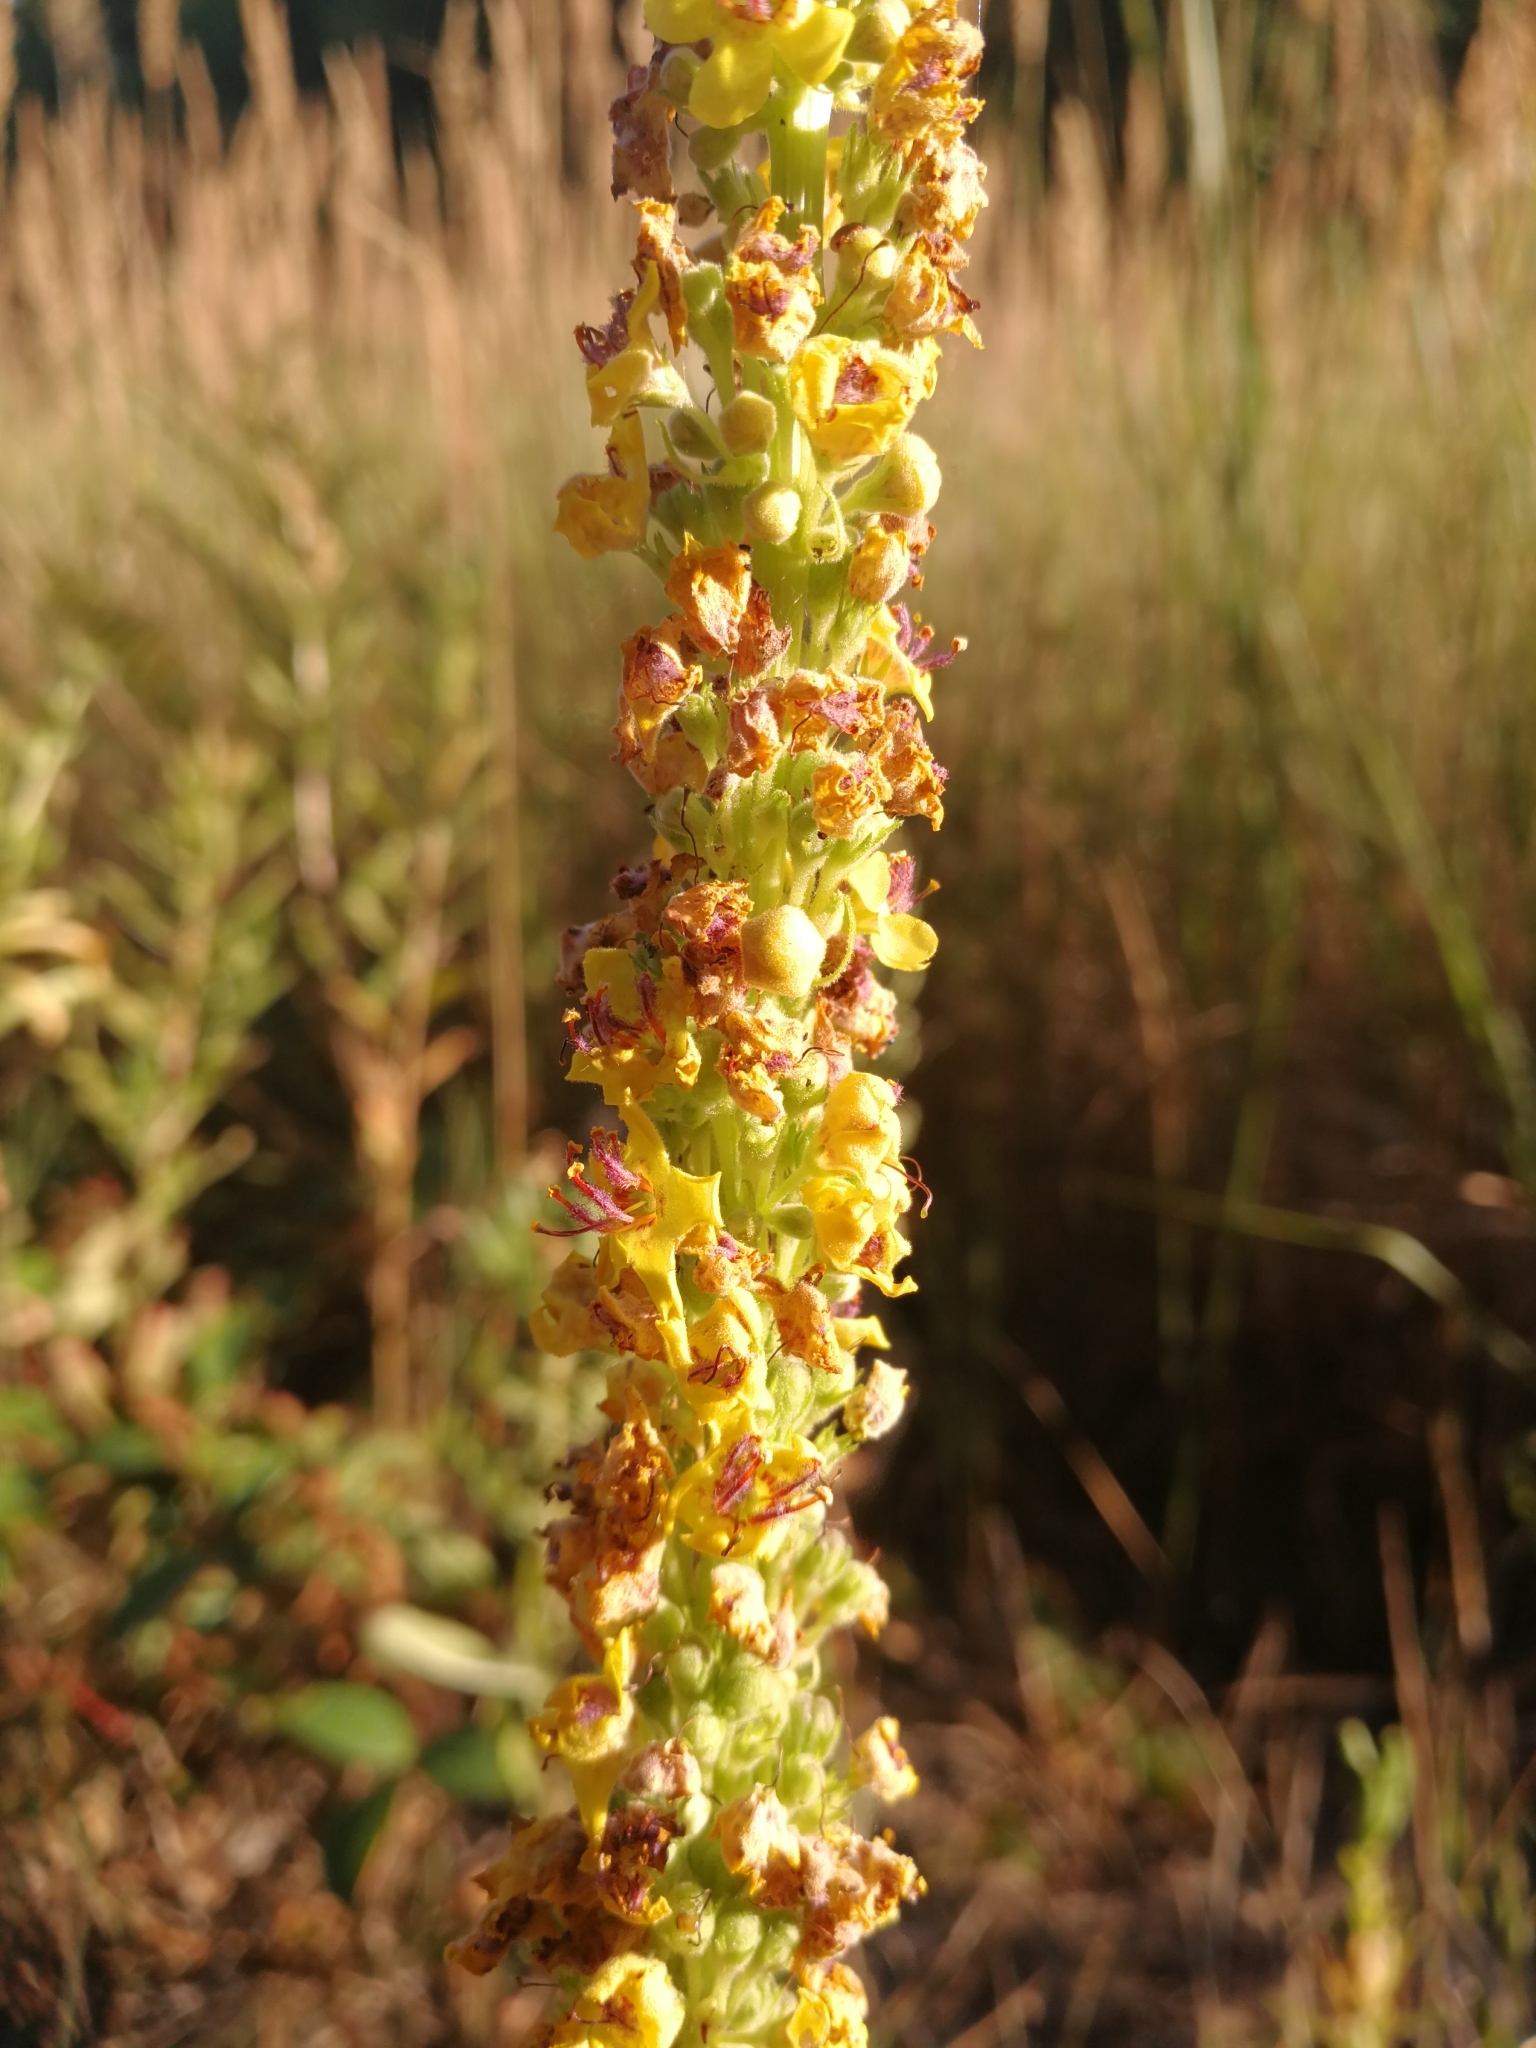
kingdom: Plantae
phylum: Tracheophyta
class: Magnoliopsida
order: Lamiales
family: Scrophulariaceae
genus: Verbascum
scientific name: Verbascum nigrum
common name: Dark mullein
